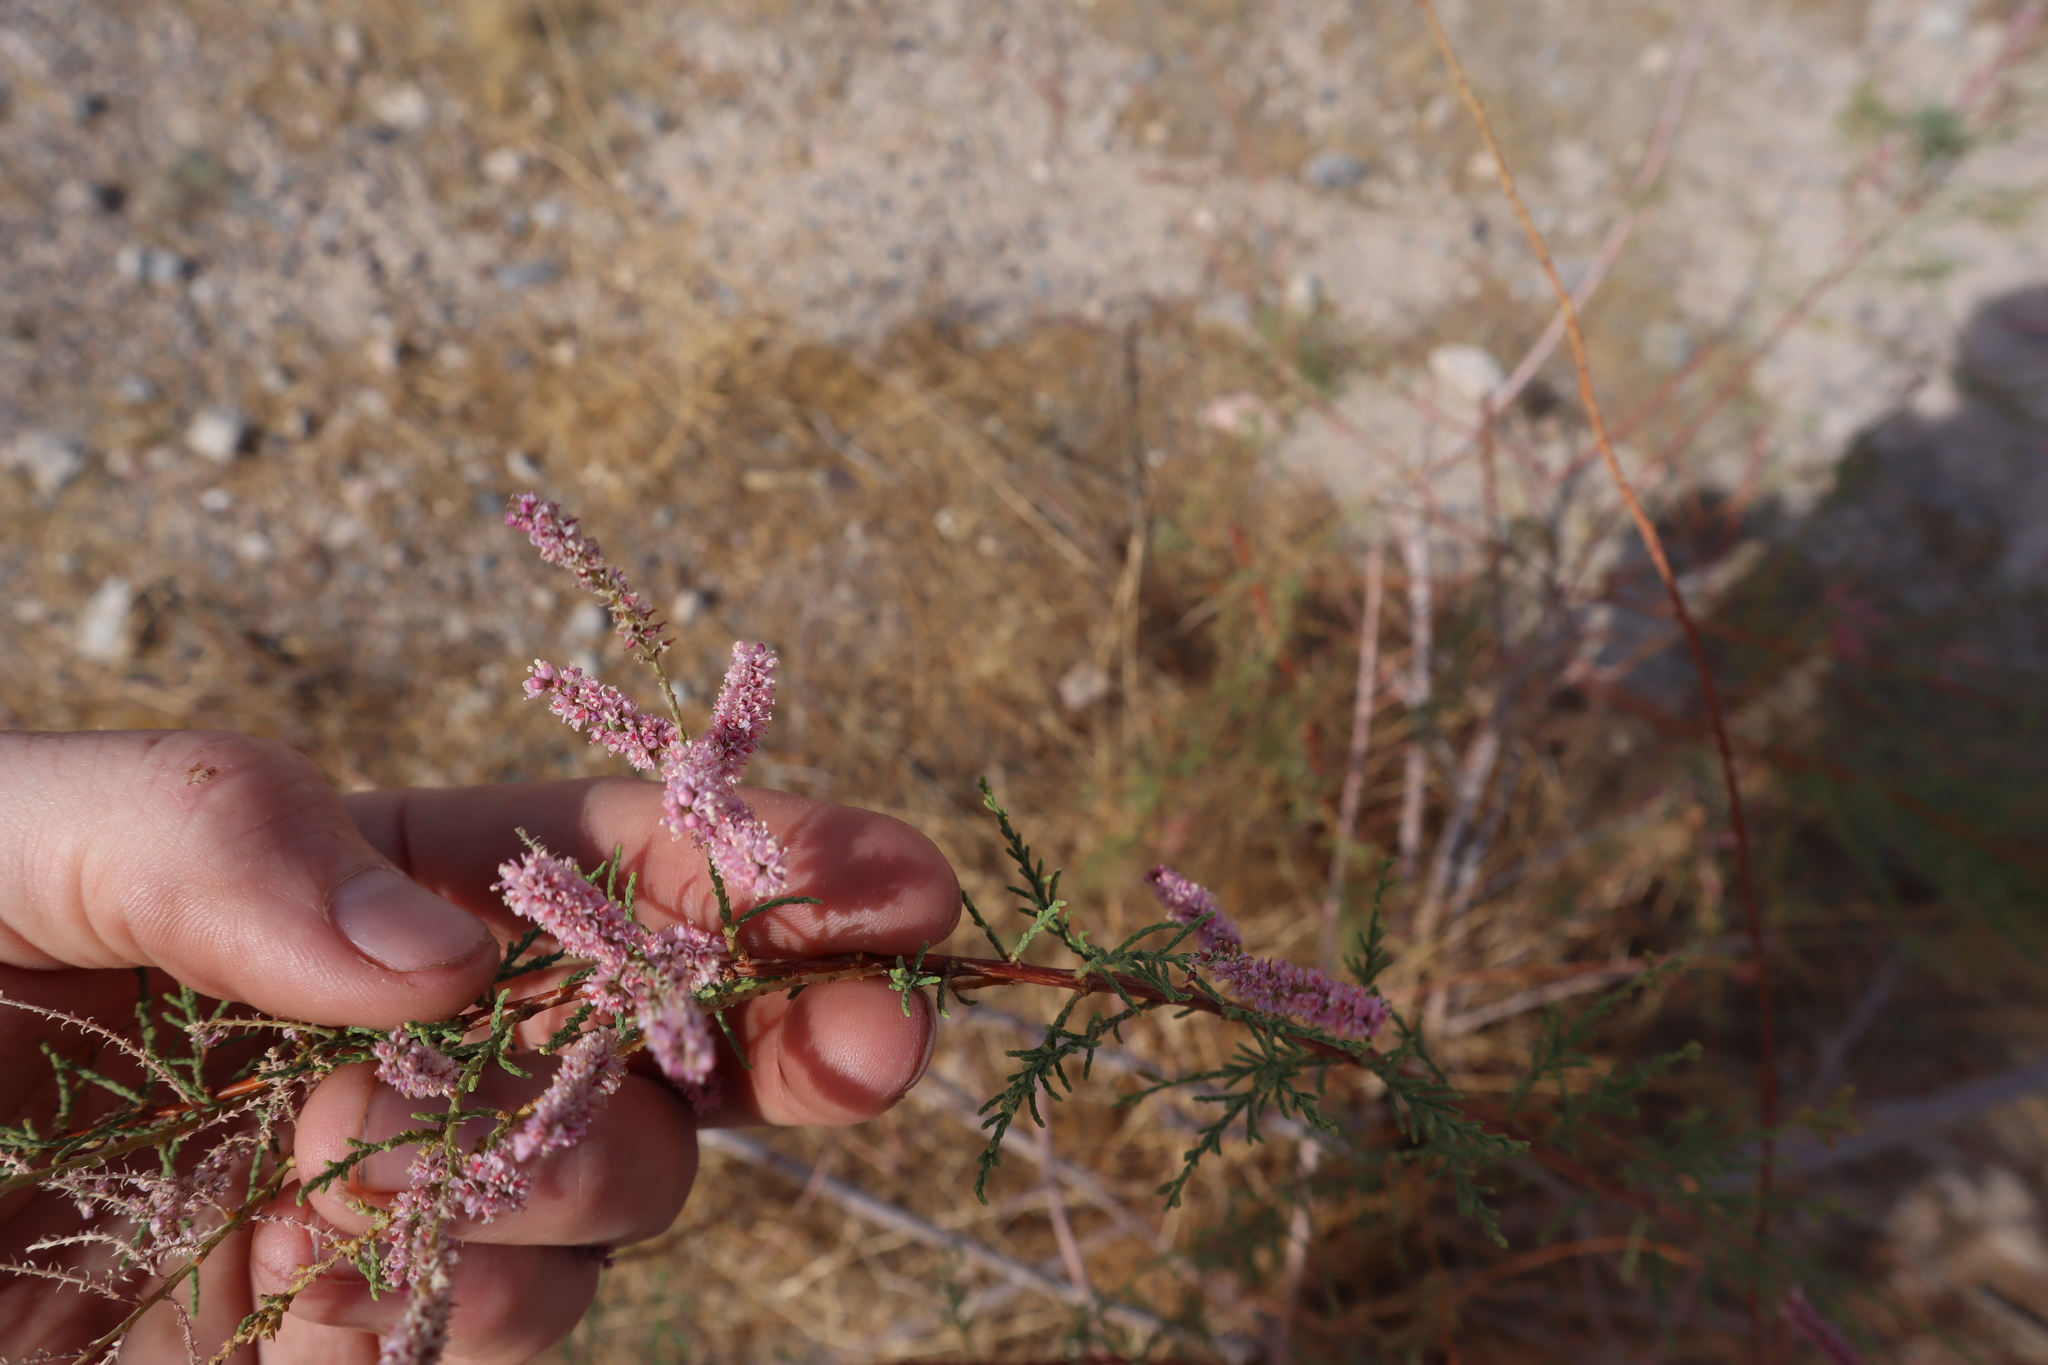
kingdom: Plantae
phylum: Tracheophyta
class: Magnoliopsida
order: Caryophyllales
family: Tamaricaceae
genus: Tamarix
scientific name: Tamarix
